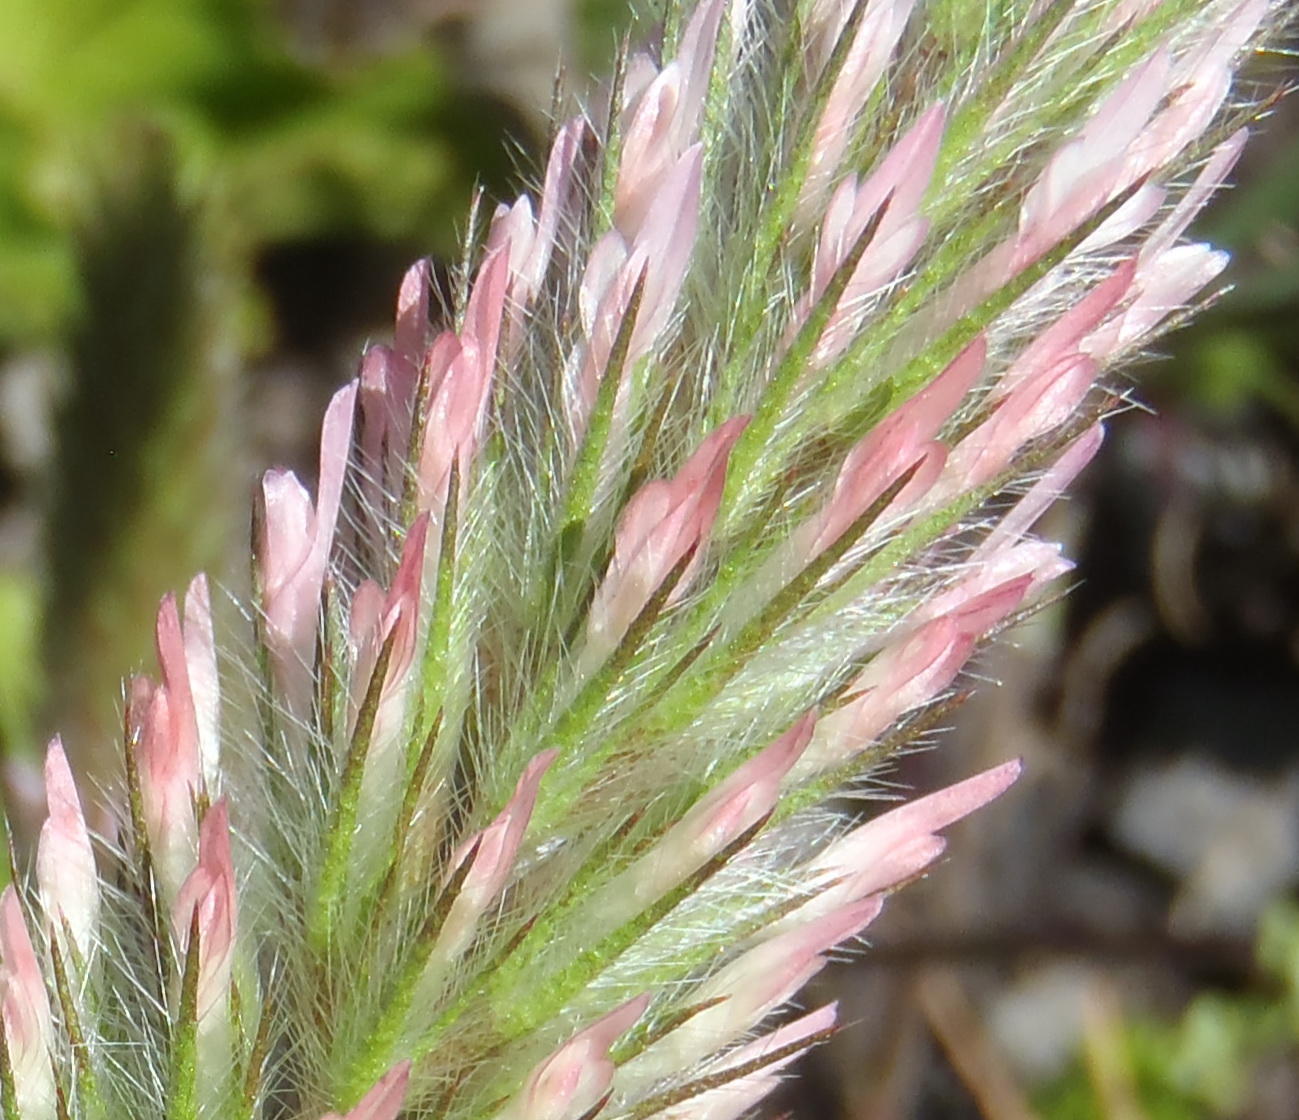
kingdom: Plantae
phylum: Tracheophyta
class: Magnoliopsida
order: Fabales
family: Fabaceae
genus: Trifolium
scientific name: Trifolium angustifolium
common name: Narrow clover
